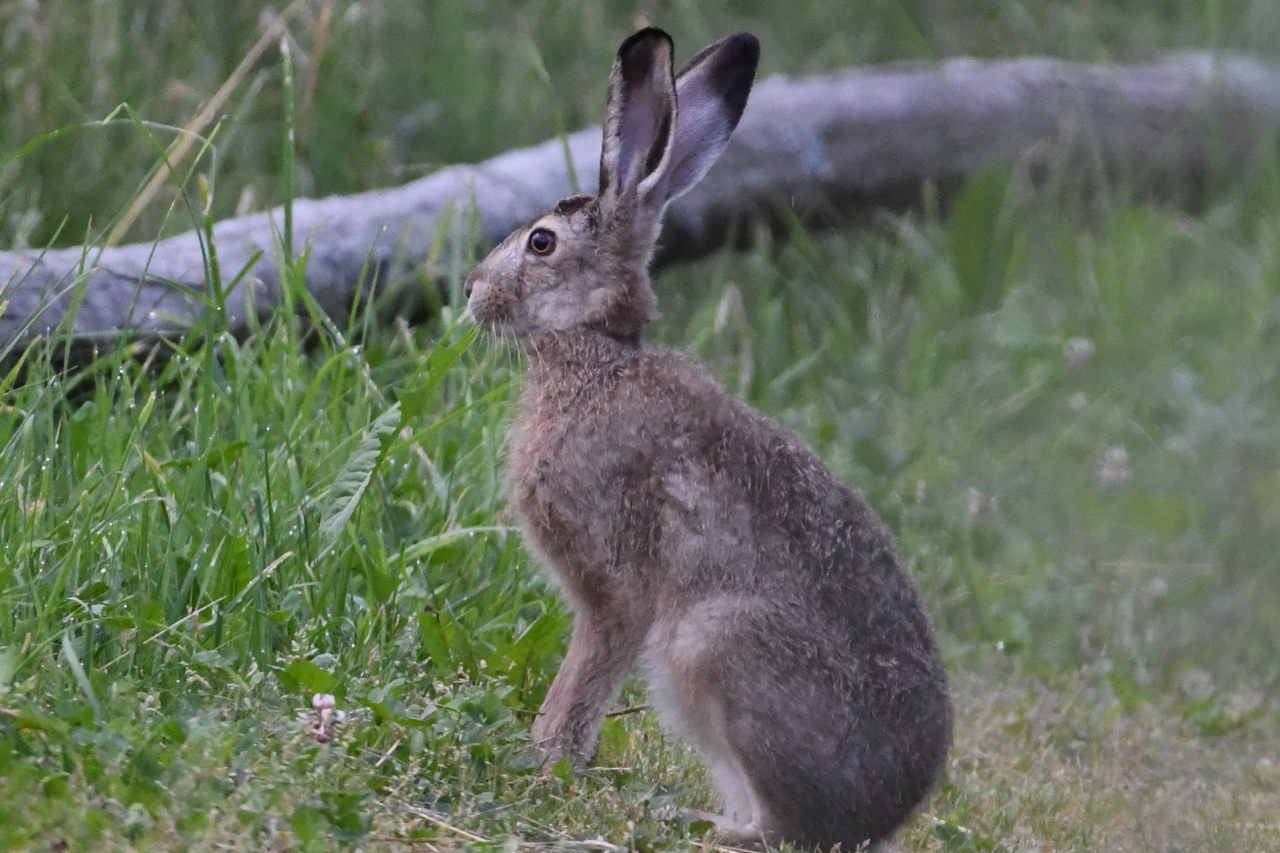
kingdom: Animalia
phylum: Chordata
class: Mammalia
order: Lagomorpha
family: Leporidae
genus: Lepus
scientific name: Lepus europaeus
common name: European hare
